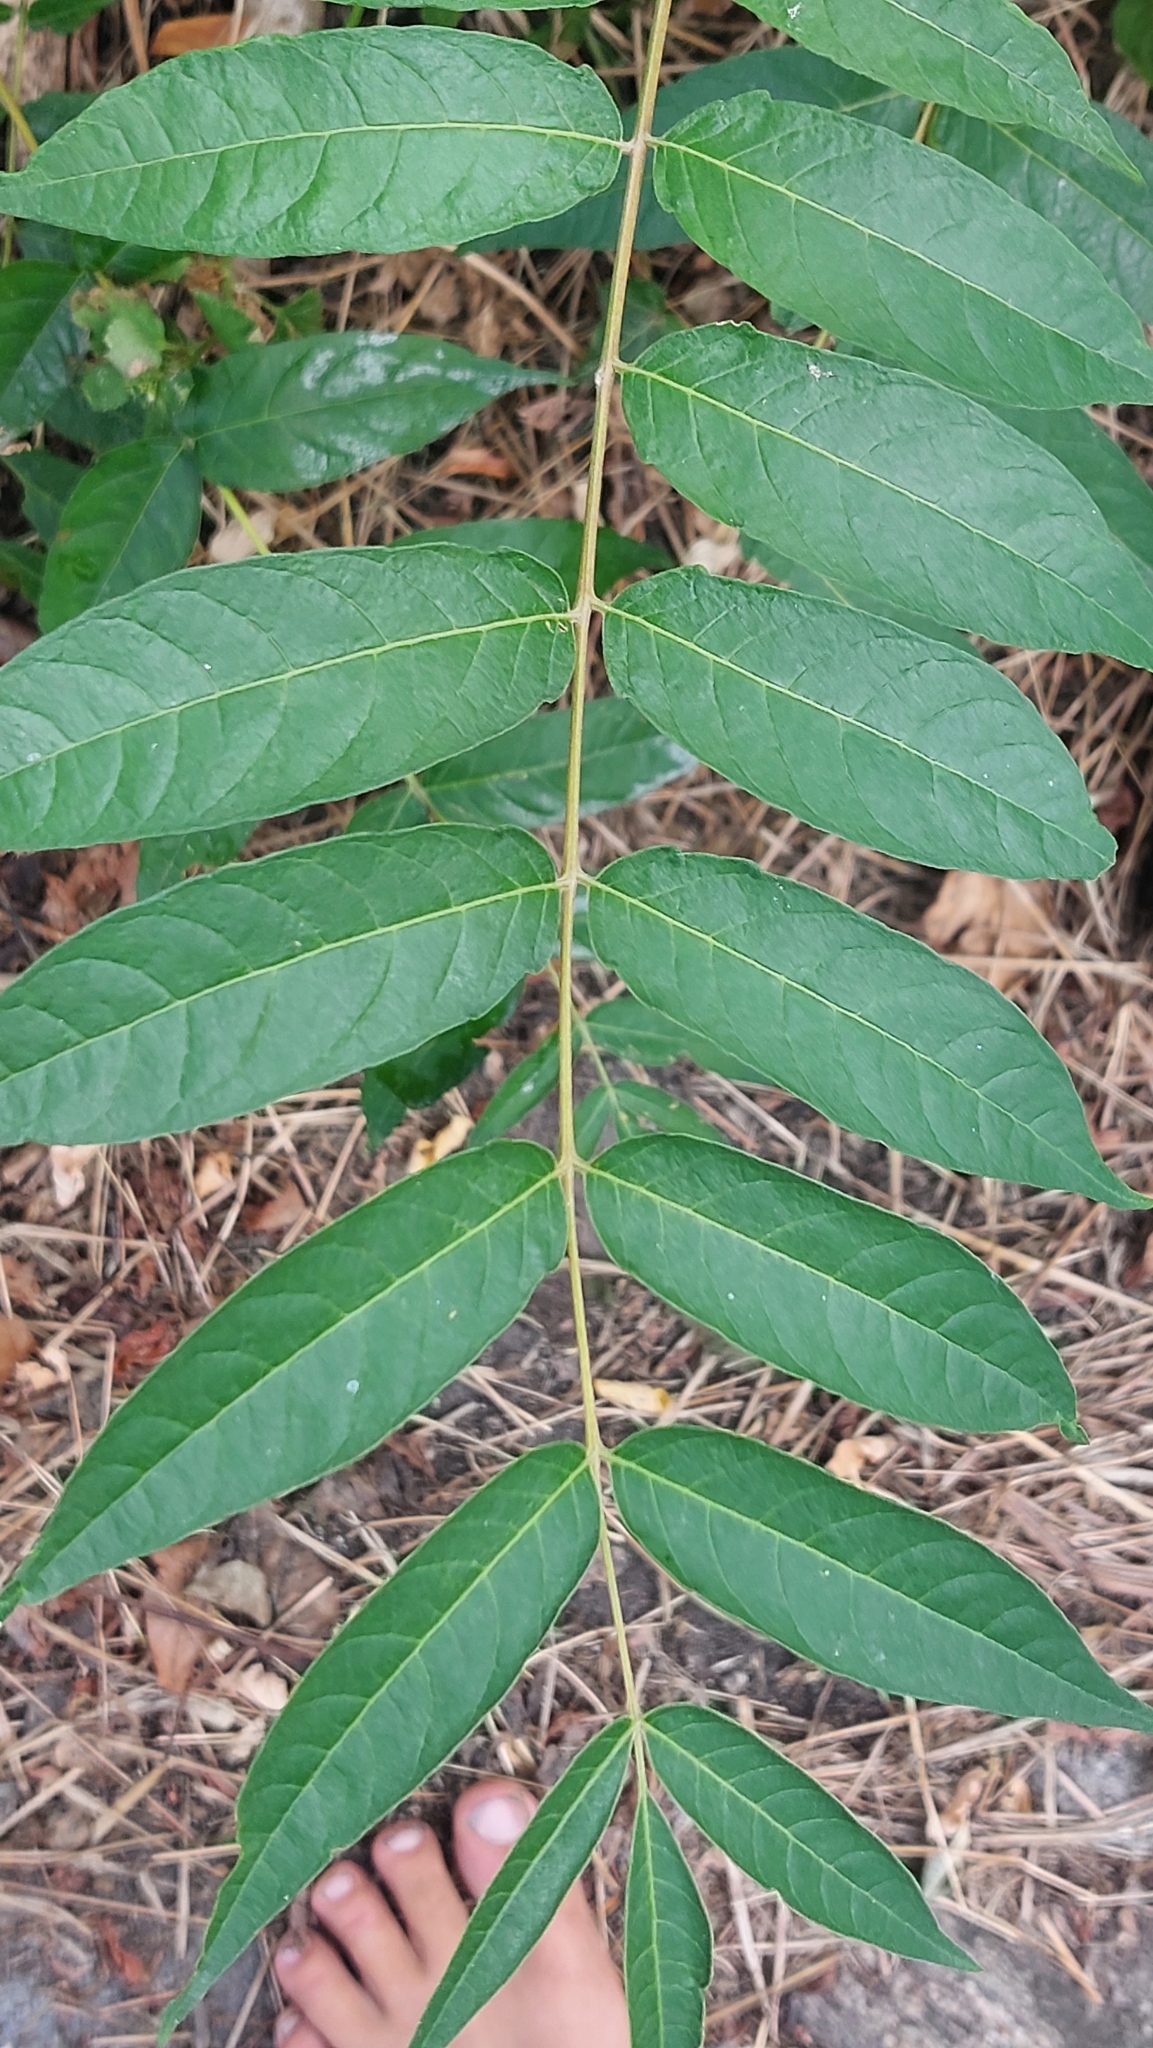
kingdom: Plantae
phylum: Tracheophyta
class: Magnoliopsida
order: Sapindales
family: Simaroubaceae
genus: Ailanthus
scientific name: Ailanthus altissima
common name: Tree-of-heaven
